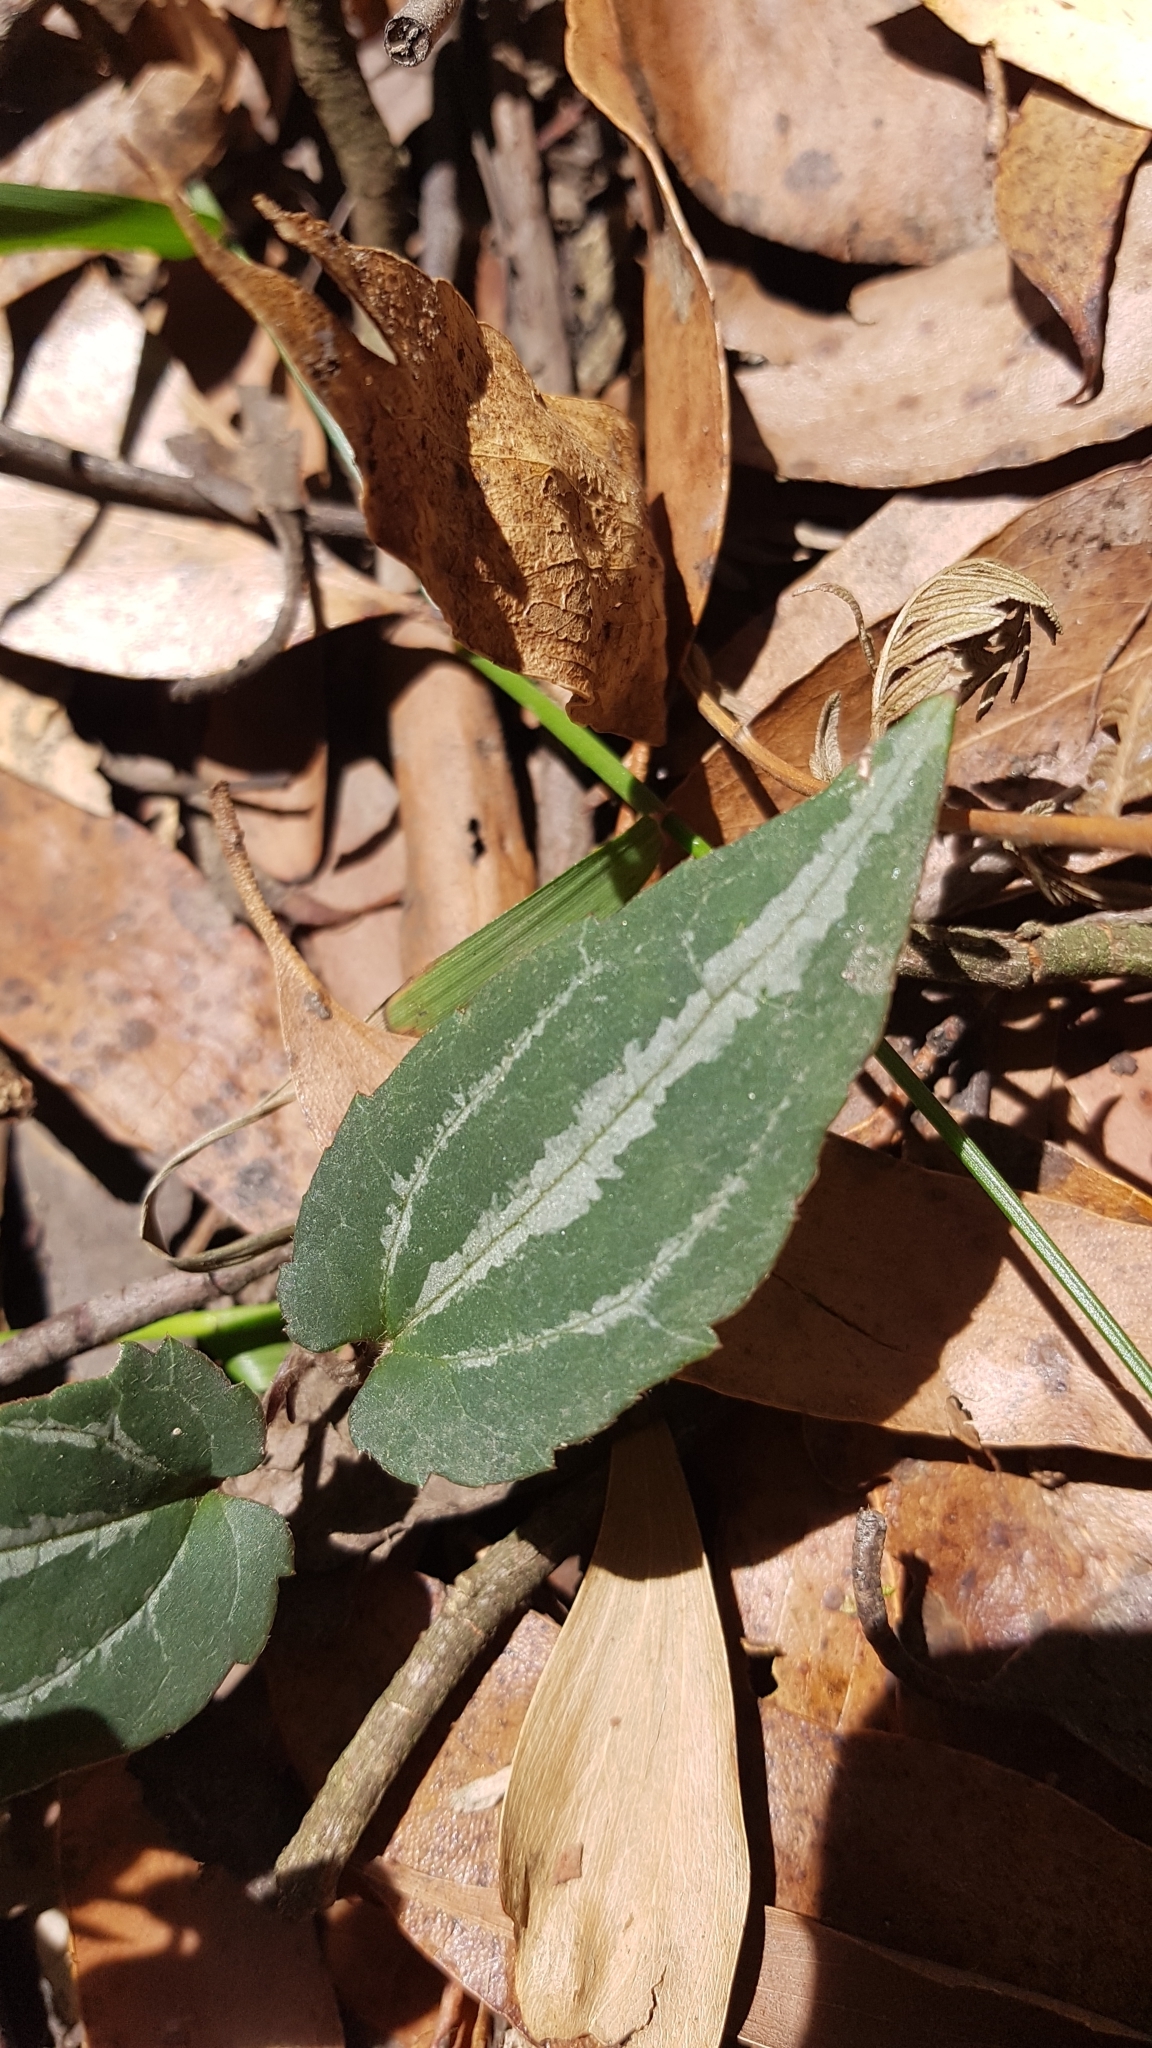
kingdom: Plantae
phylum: Tracheophyta
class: Magnoliopsida
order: Ranunculales
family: Ranunculaceae
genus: Clematis
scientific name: Clematis aristata
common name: Mountain clematis
